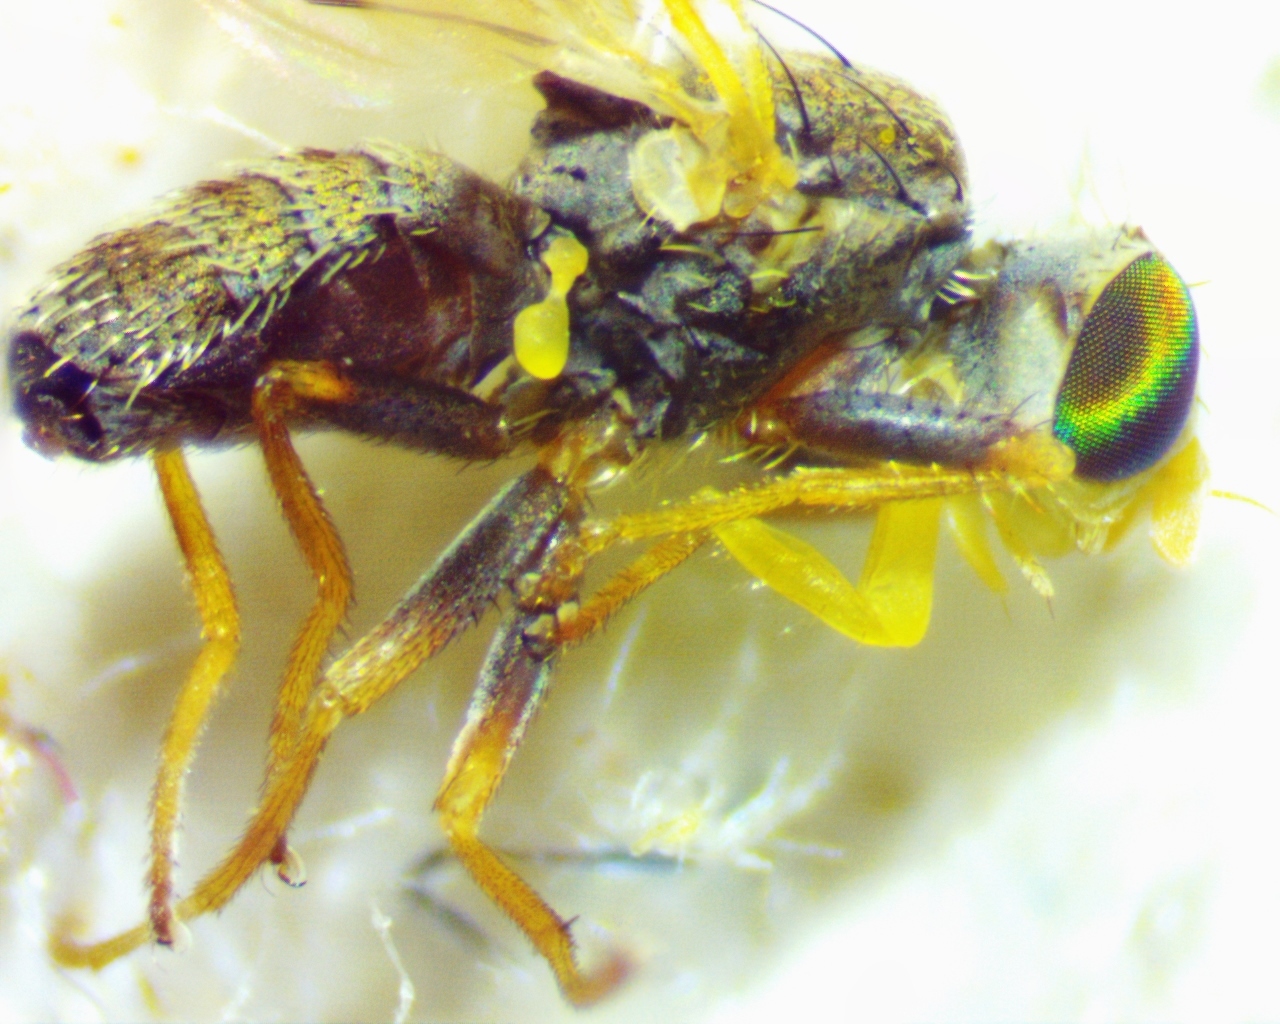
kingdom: Animalia
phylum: Arthropoda
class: Insecta
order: Diptera
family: Tephritidae
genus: Dioxyna
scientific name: Dioxyna picciola
